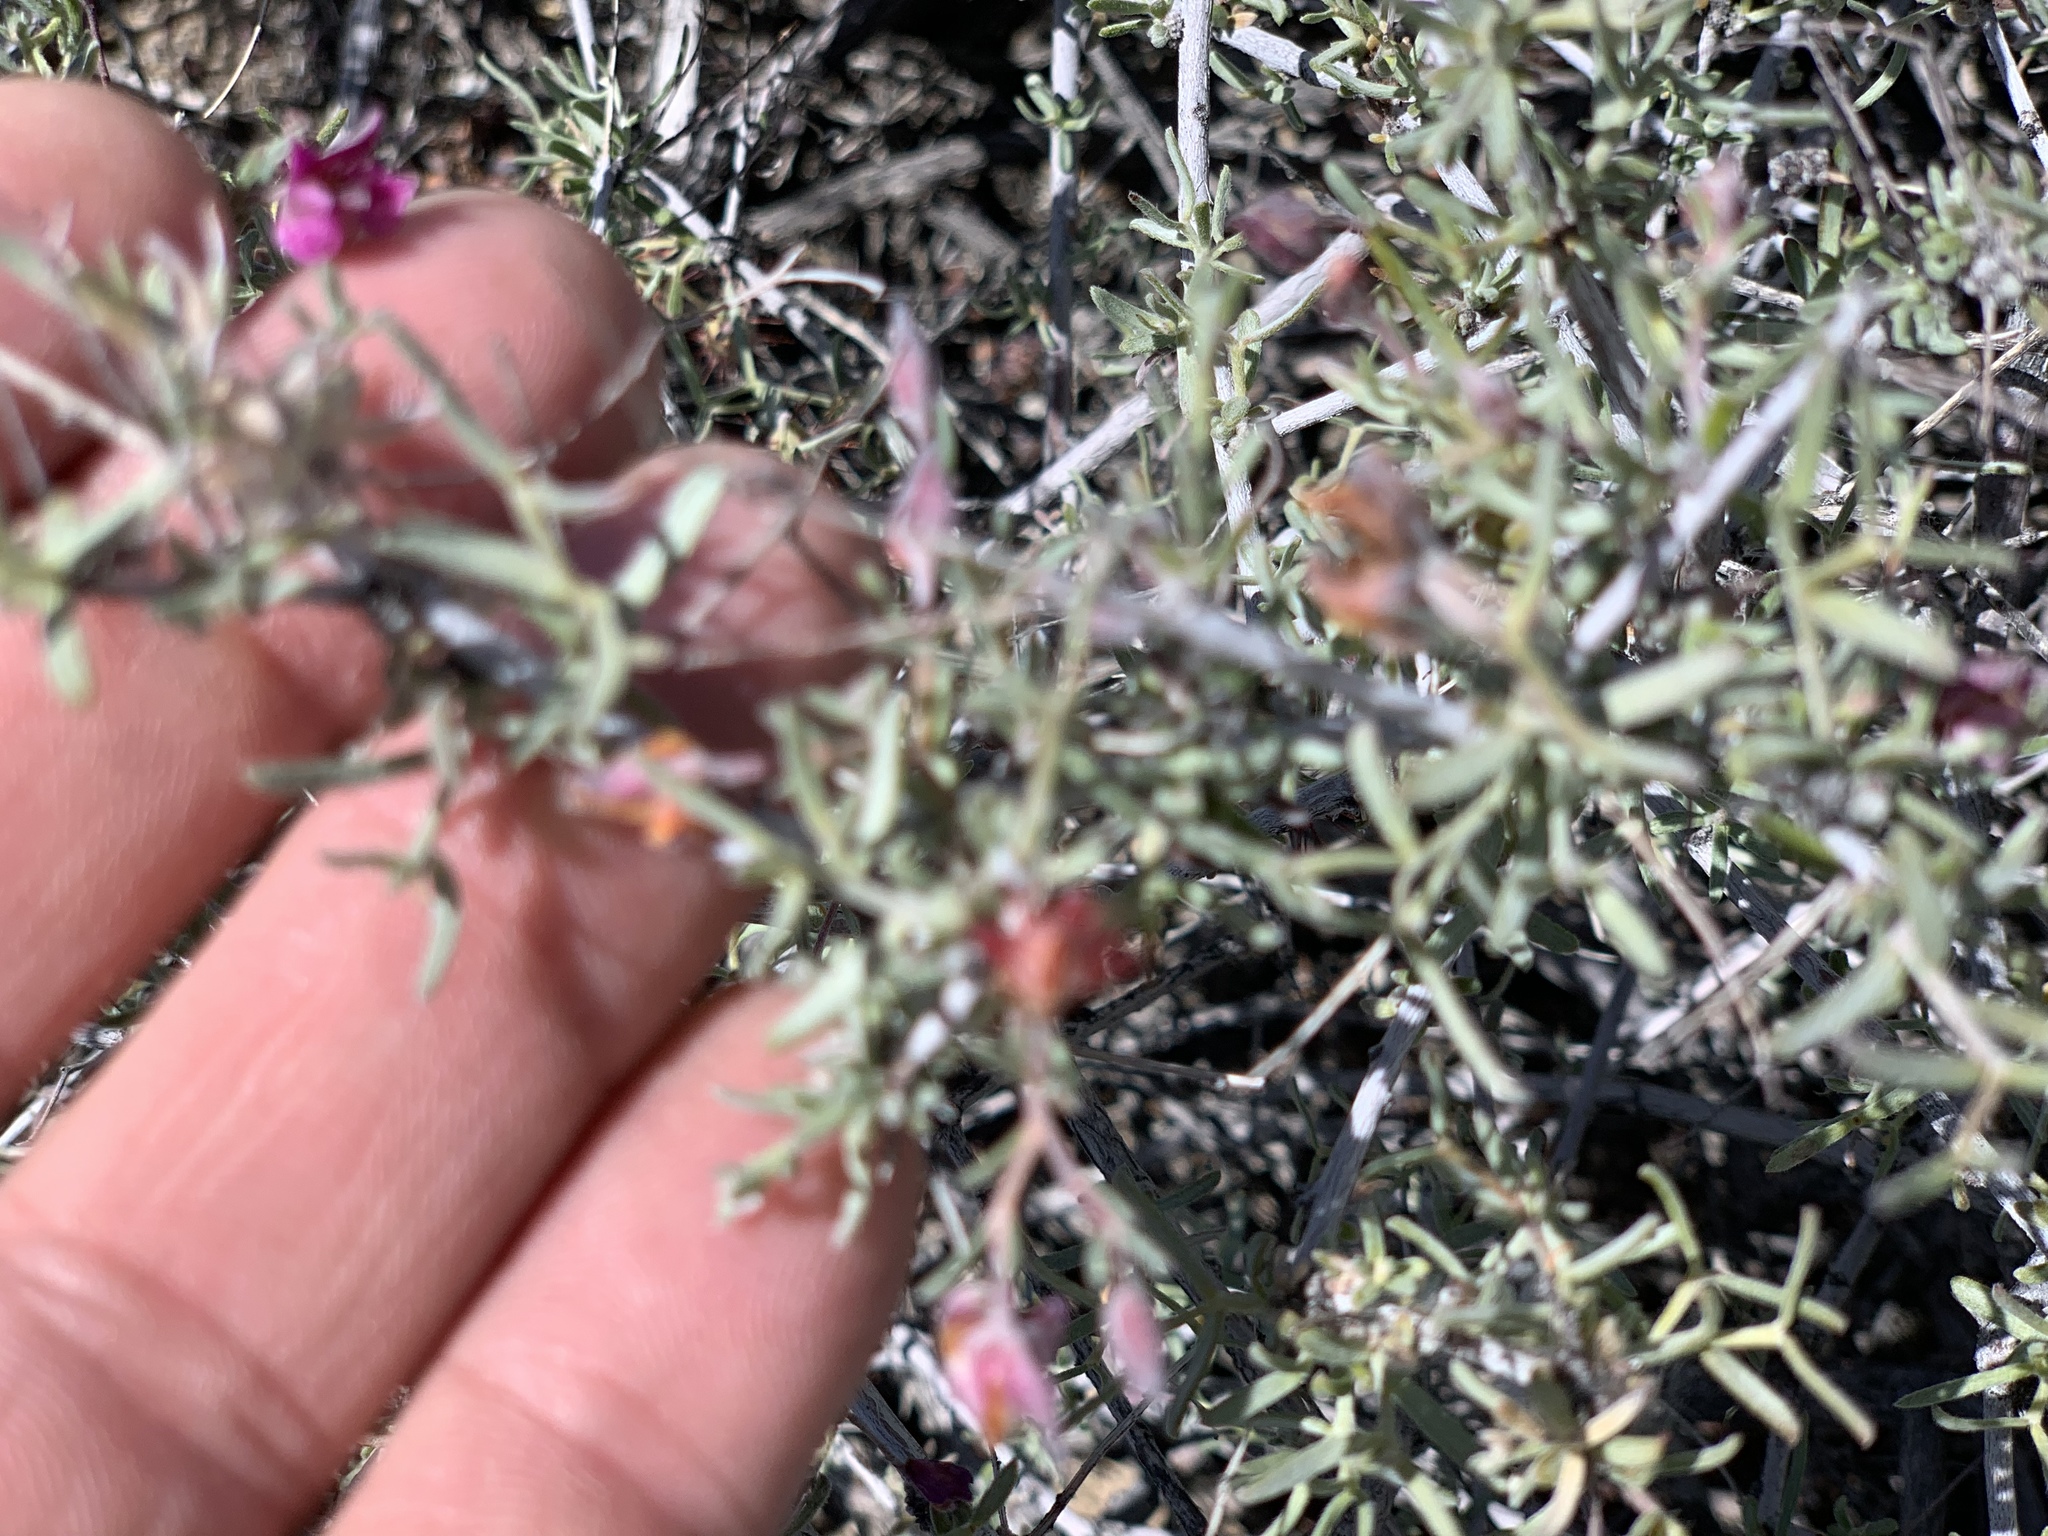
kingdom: Plantae
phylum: Tracheophyta
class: Magnoliopsida
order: Zygophyllales
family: Krameriaceae
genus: Krameria
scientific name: Krameria erecta
